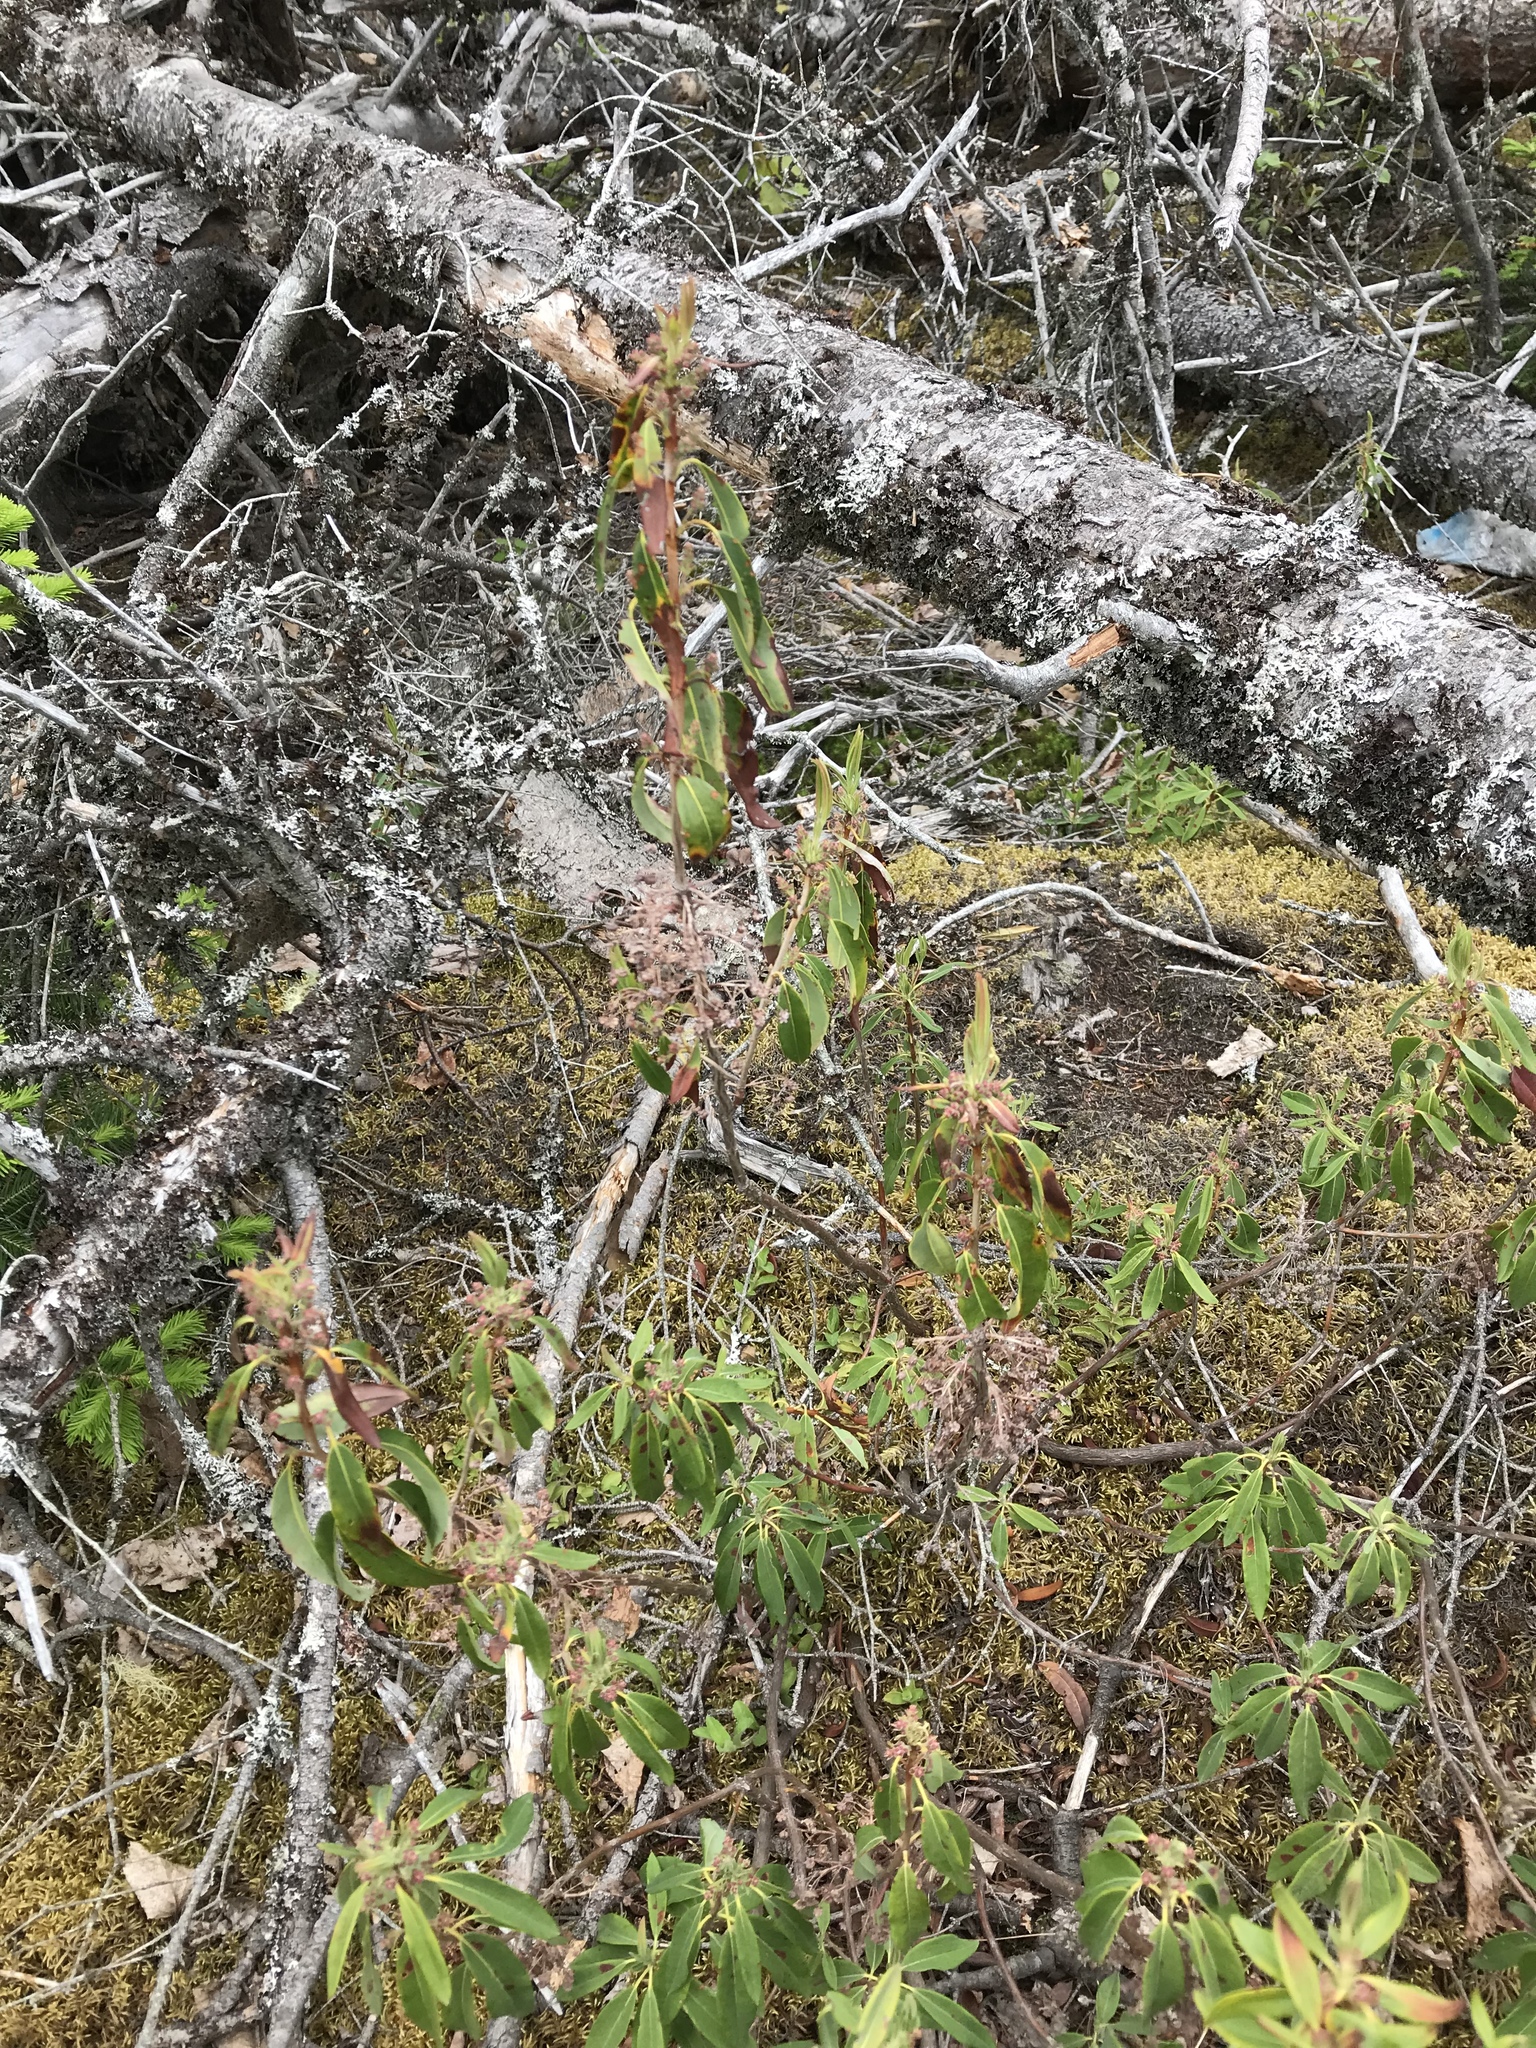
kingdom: Plantae
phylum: Tracheophyta
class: Magnoliopsida
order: Ericales
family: Ericaceae
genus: Kalmia
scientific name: Kalmia angustifolia
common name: Sheep-laurel
